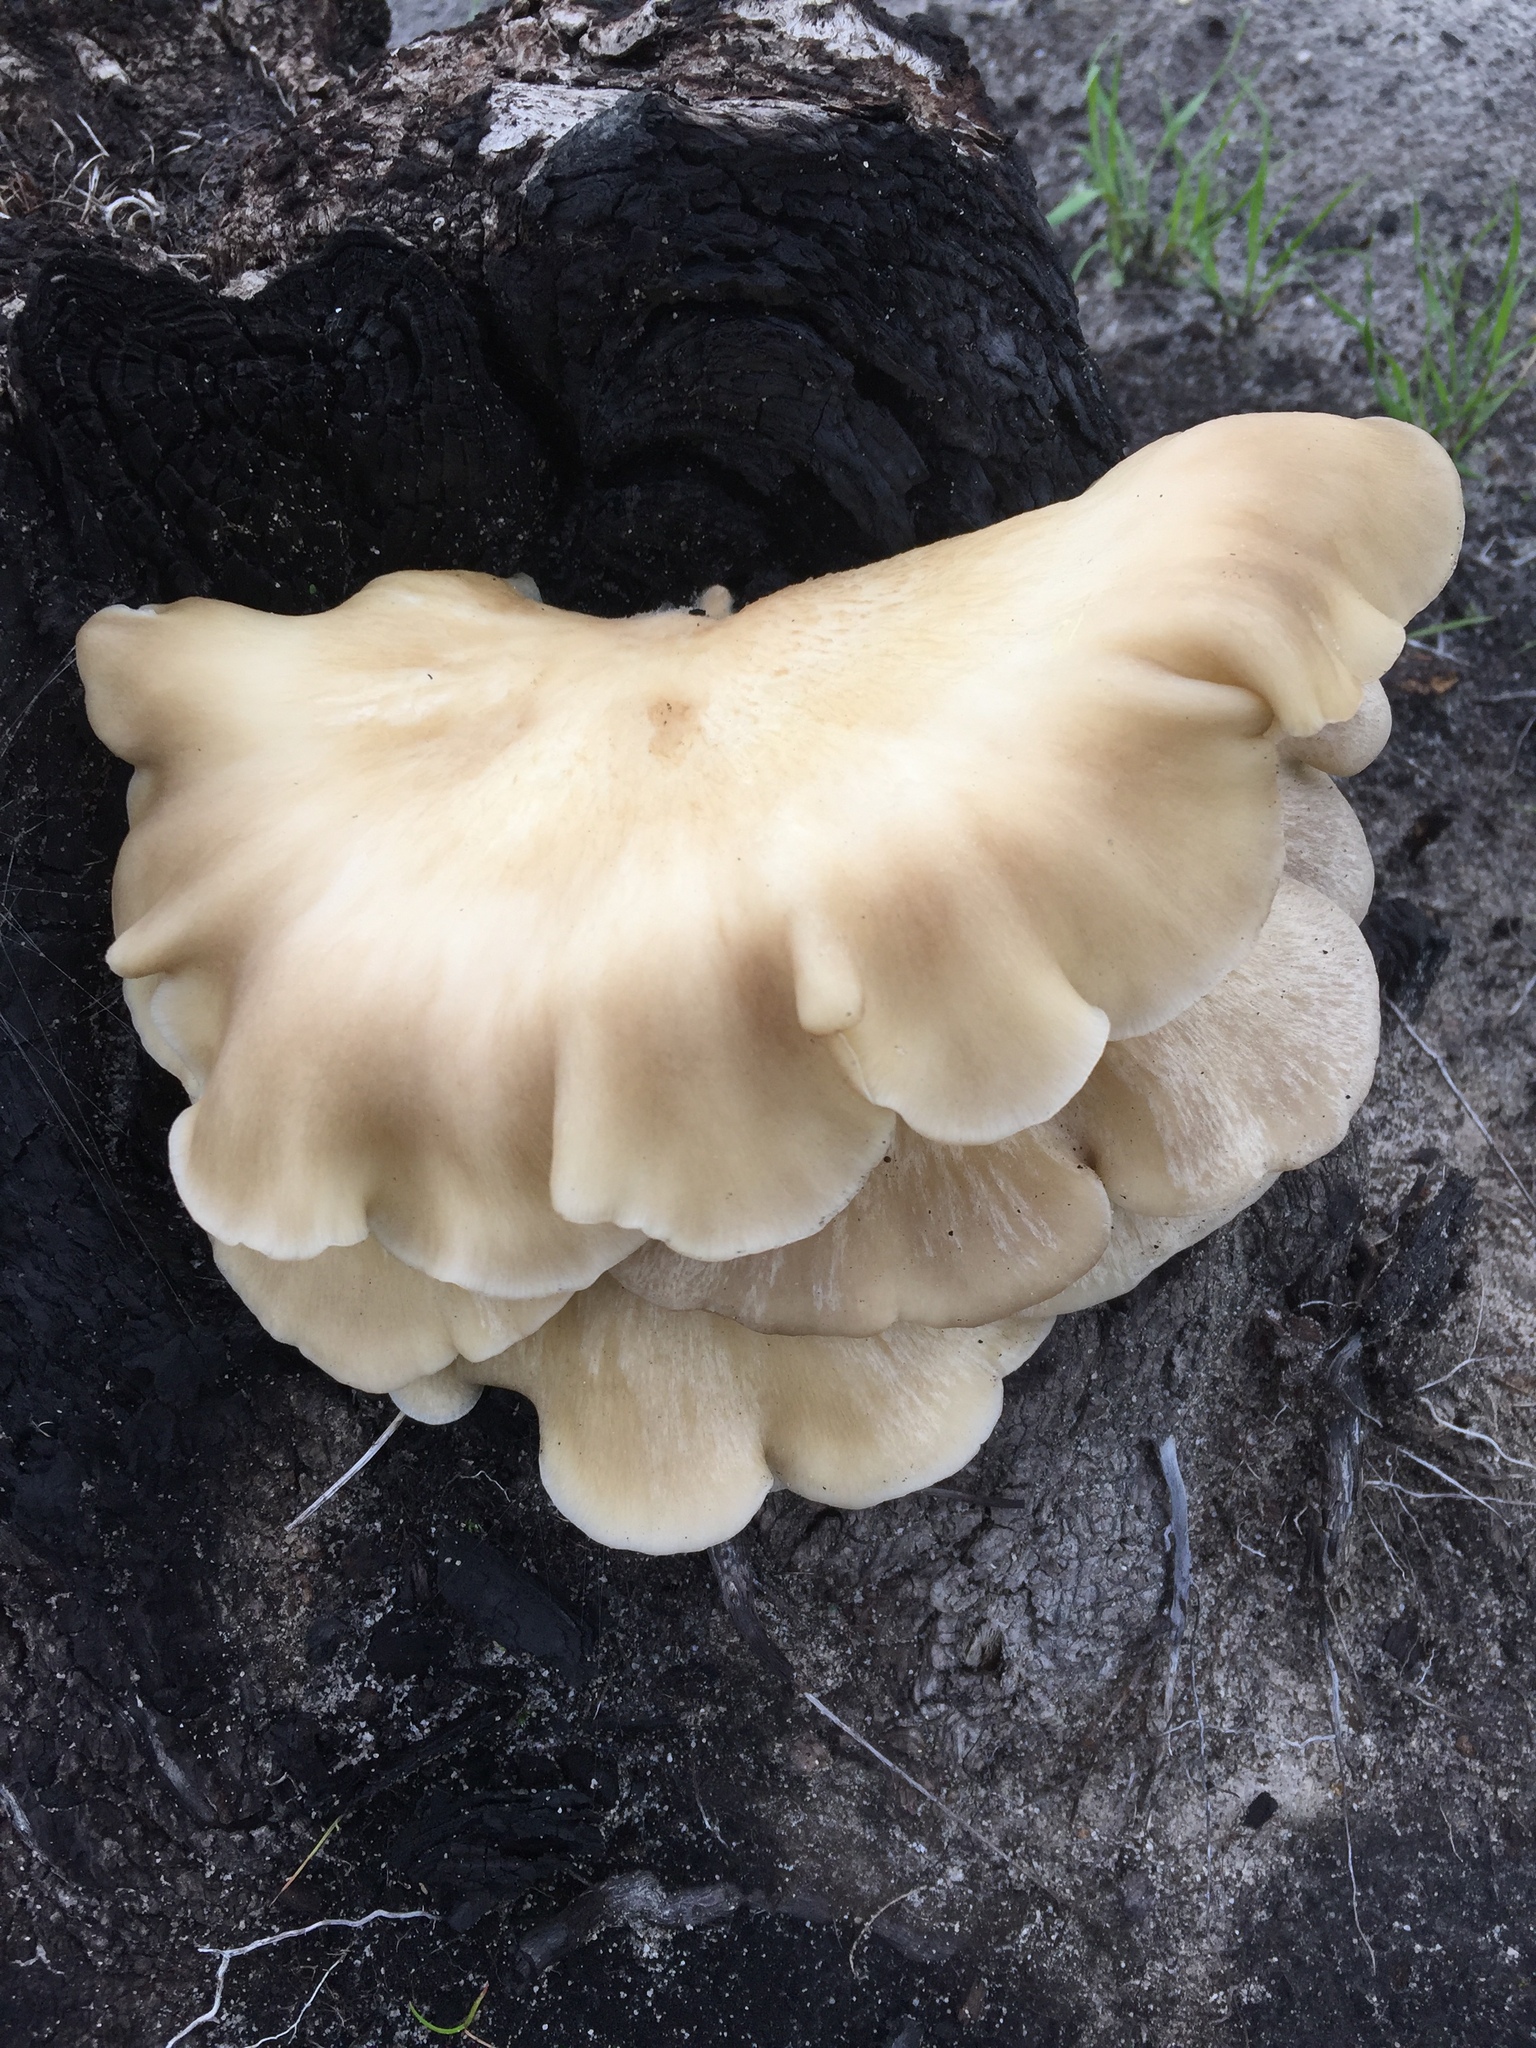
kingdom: Fungi
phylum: Basidiomycota
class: Agaricomycetes
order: Agaricales
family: Crepidotaceae
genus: Crepidotus
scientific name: Crepidotus mollis
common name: Peeling oysterling
